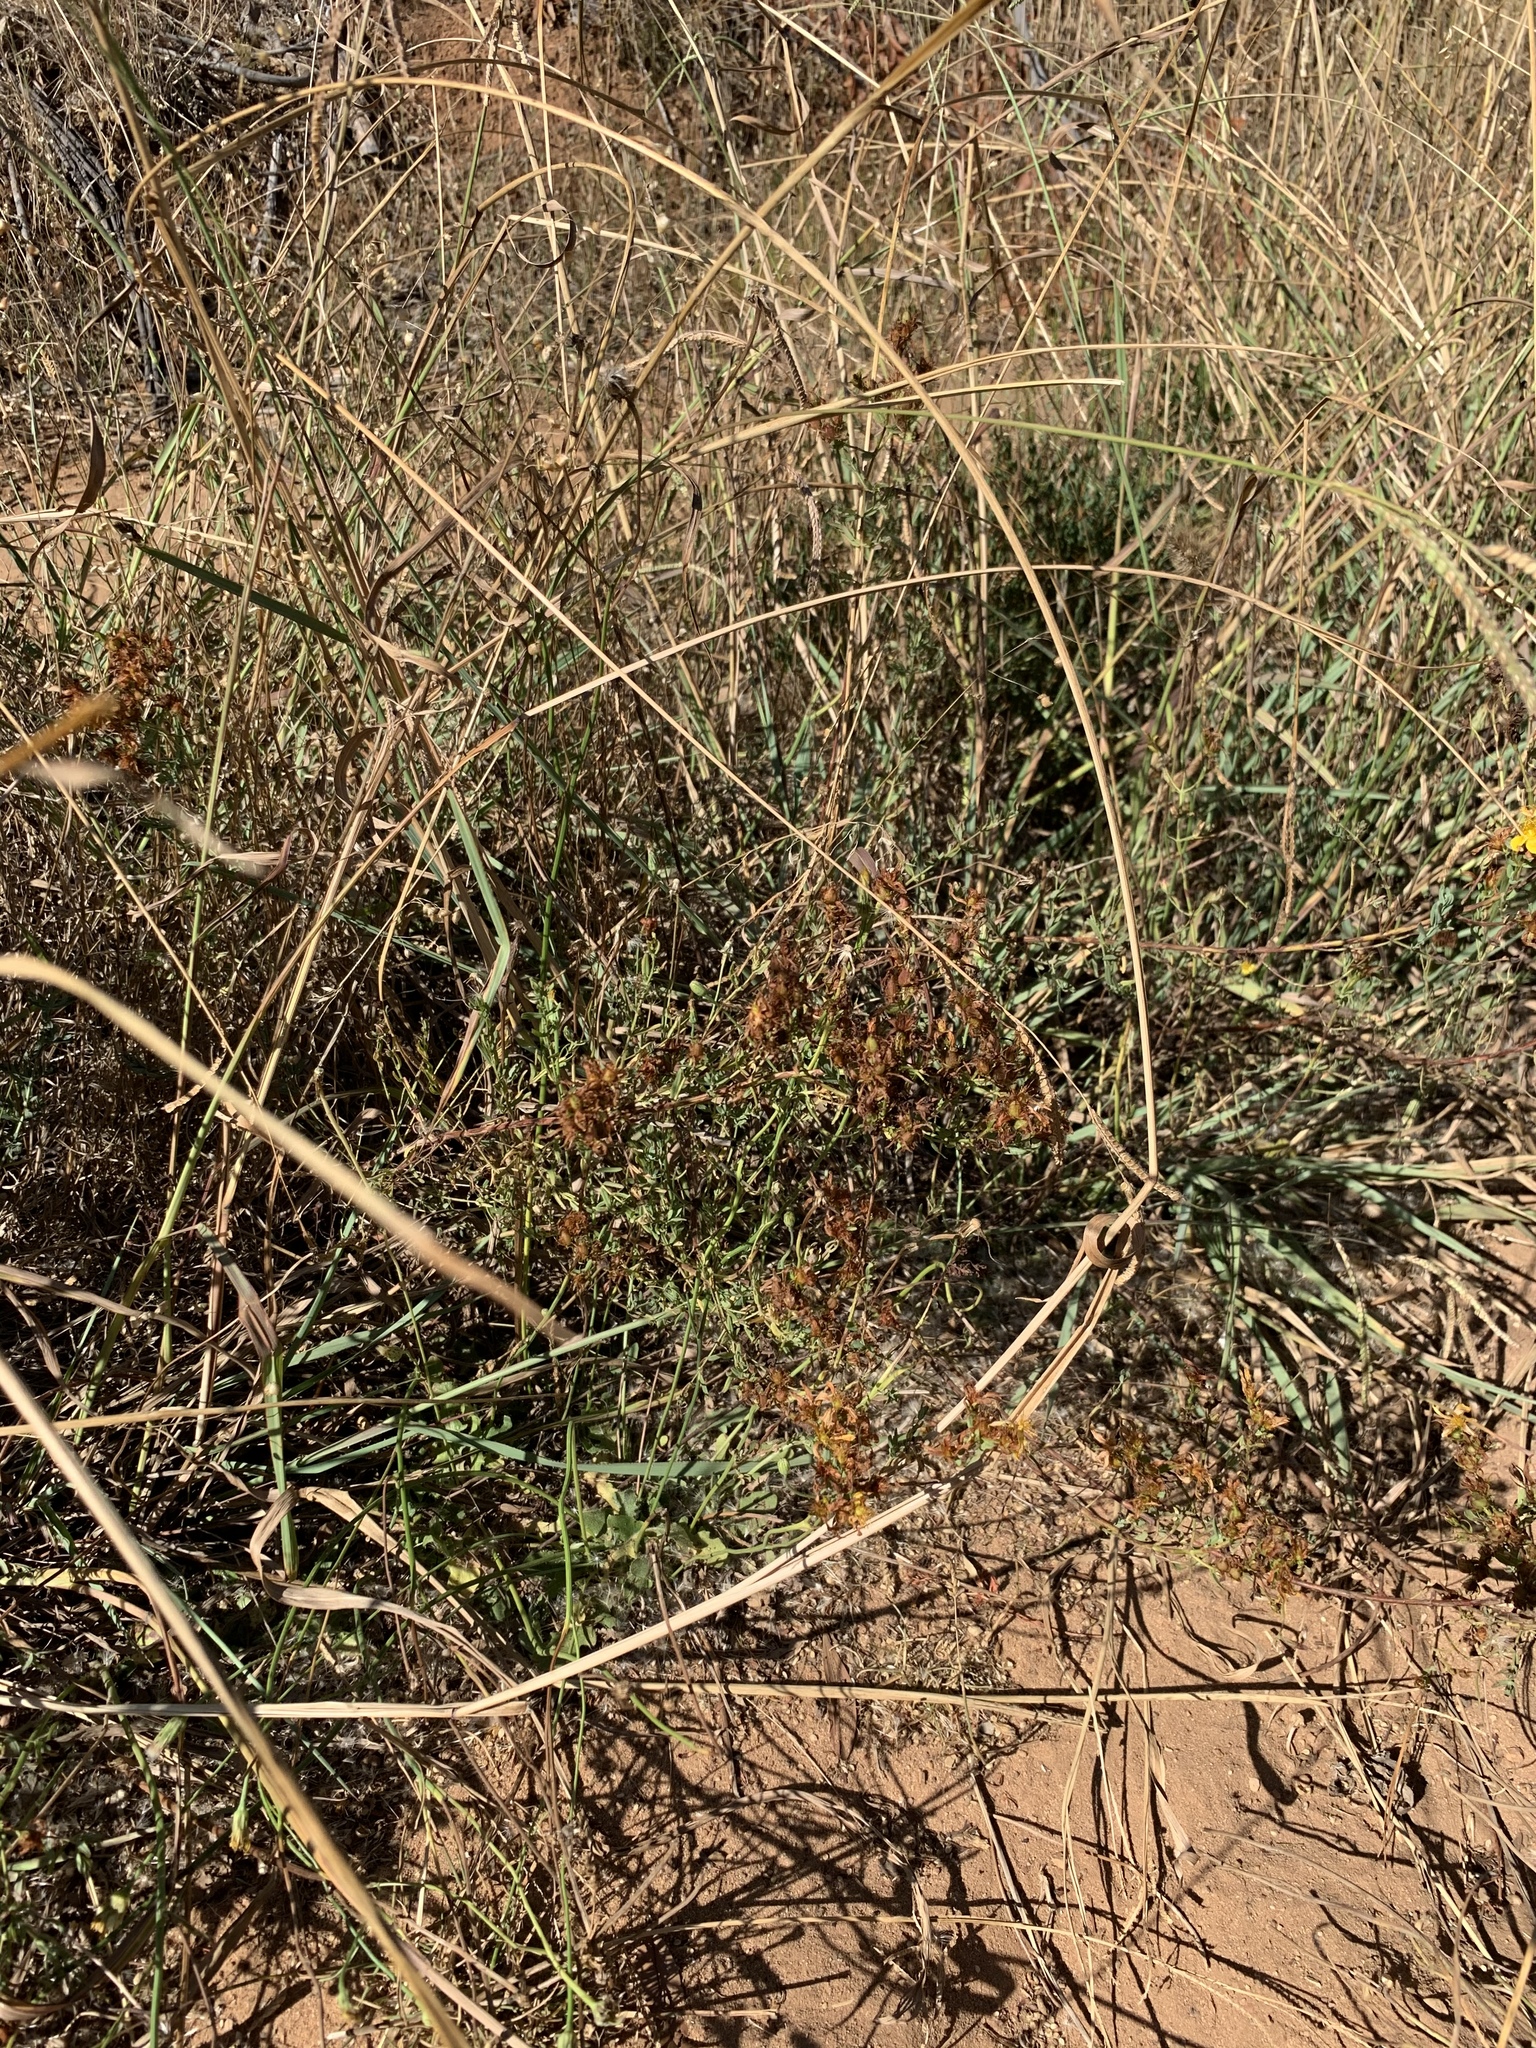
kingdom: Plantae
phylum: Tracheophyta
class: Magnoliopsida
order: Malpighiales
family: Hypericaceae
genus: Hypericum
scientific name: Hypericum perforatum
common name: Common st. johnswort
